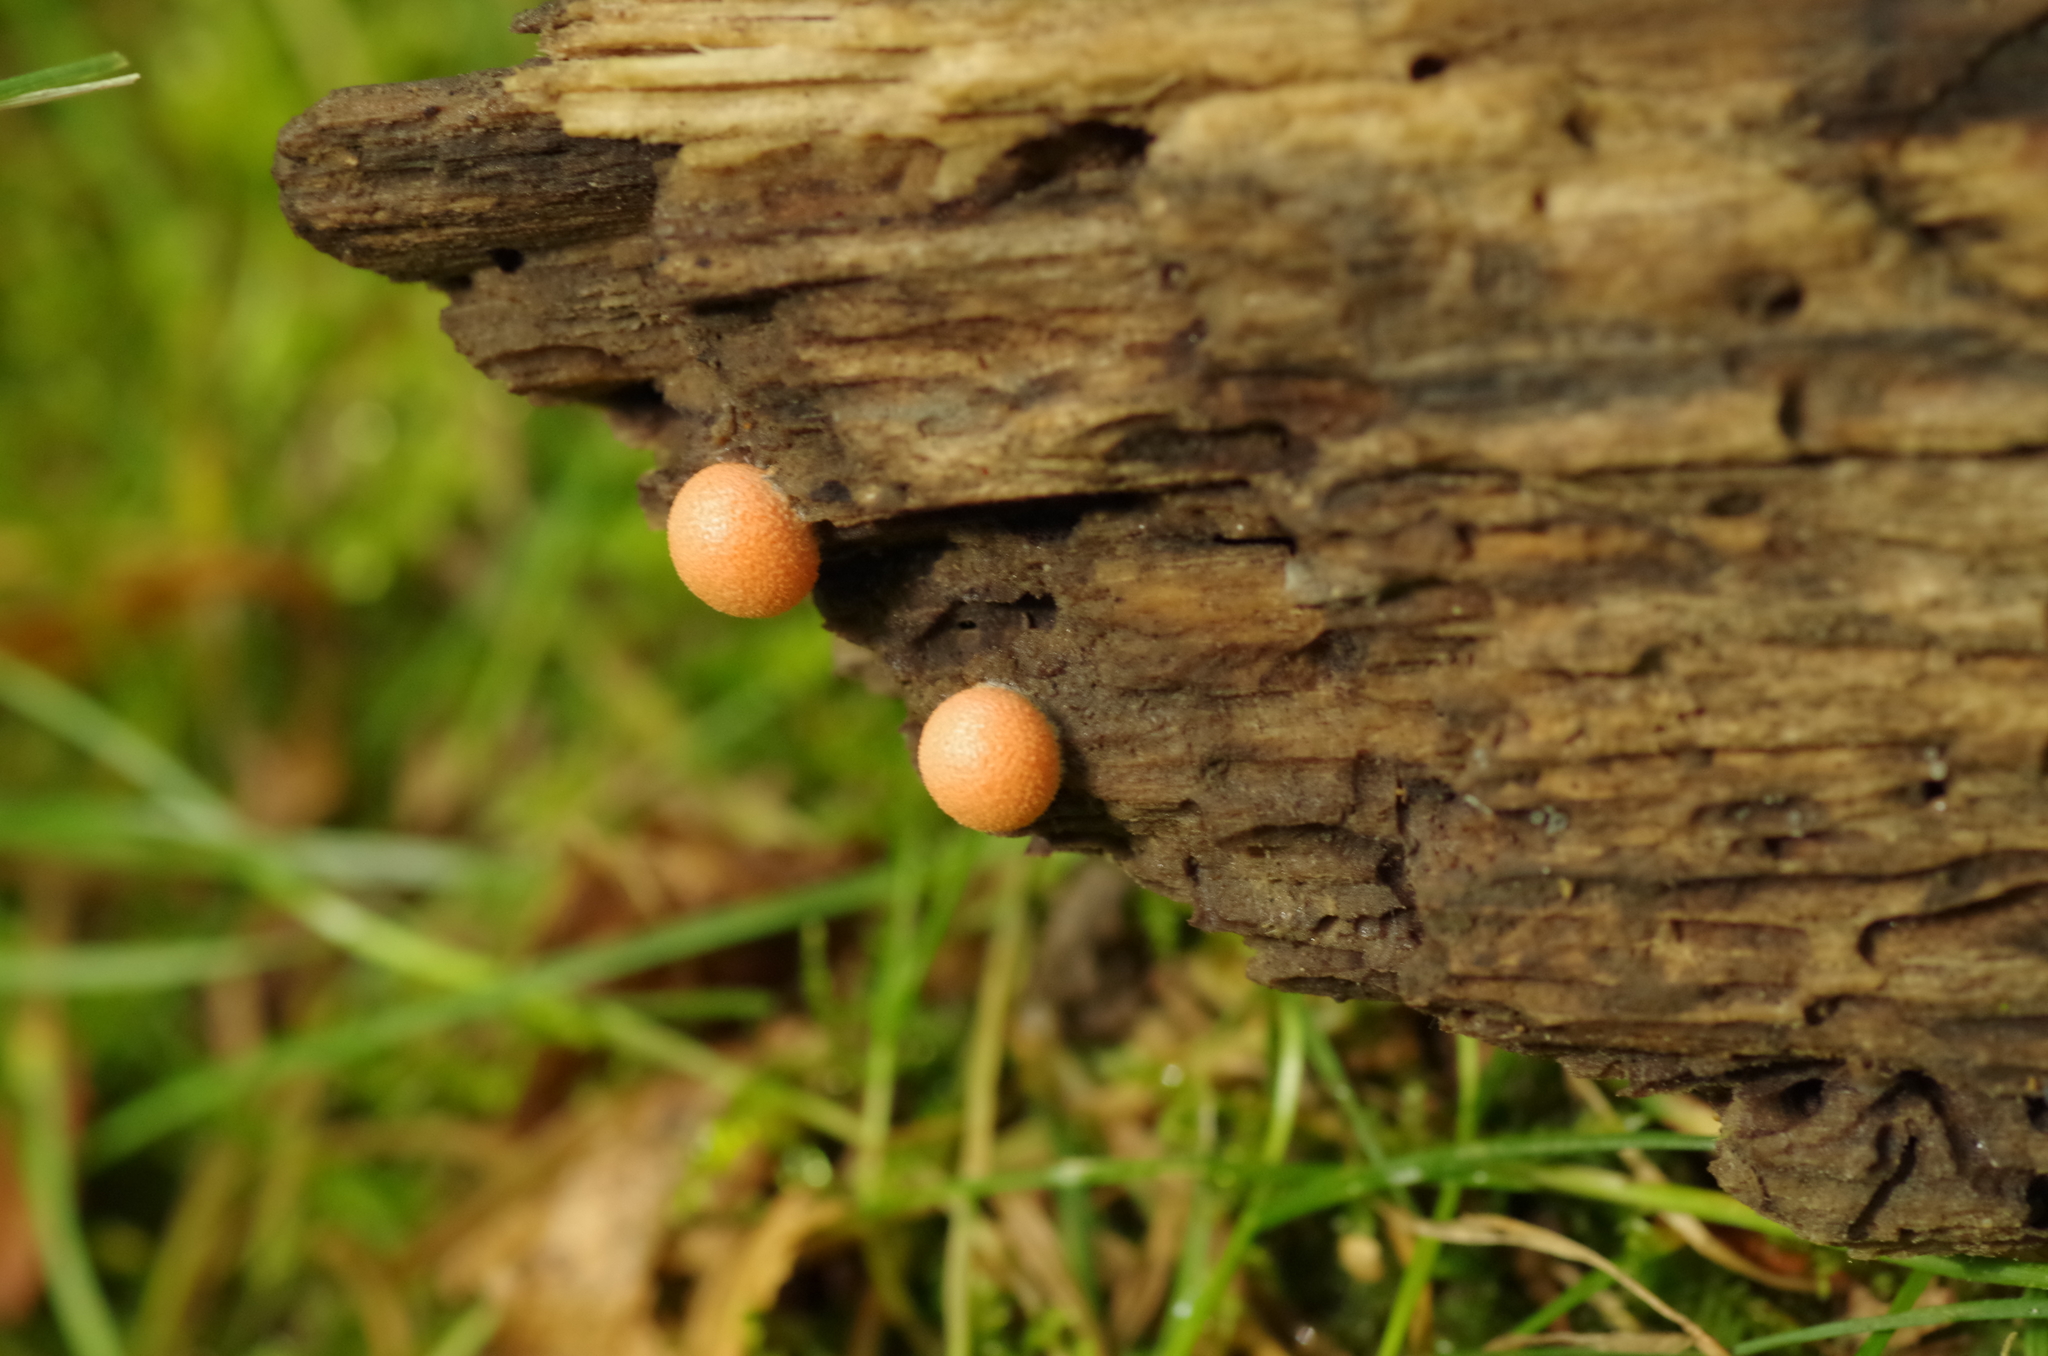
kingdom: Protozoa
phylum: Mycetozoa
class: Myxomycetes
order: Cribrariales
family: Tubiferaceae
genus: Lycogala
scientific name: Lycogala epidendrum
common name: Wolf's milk
